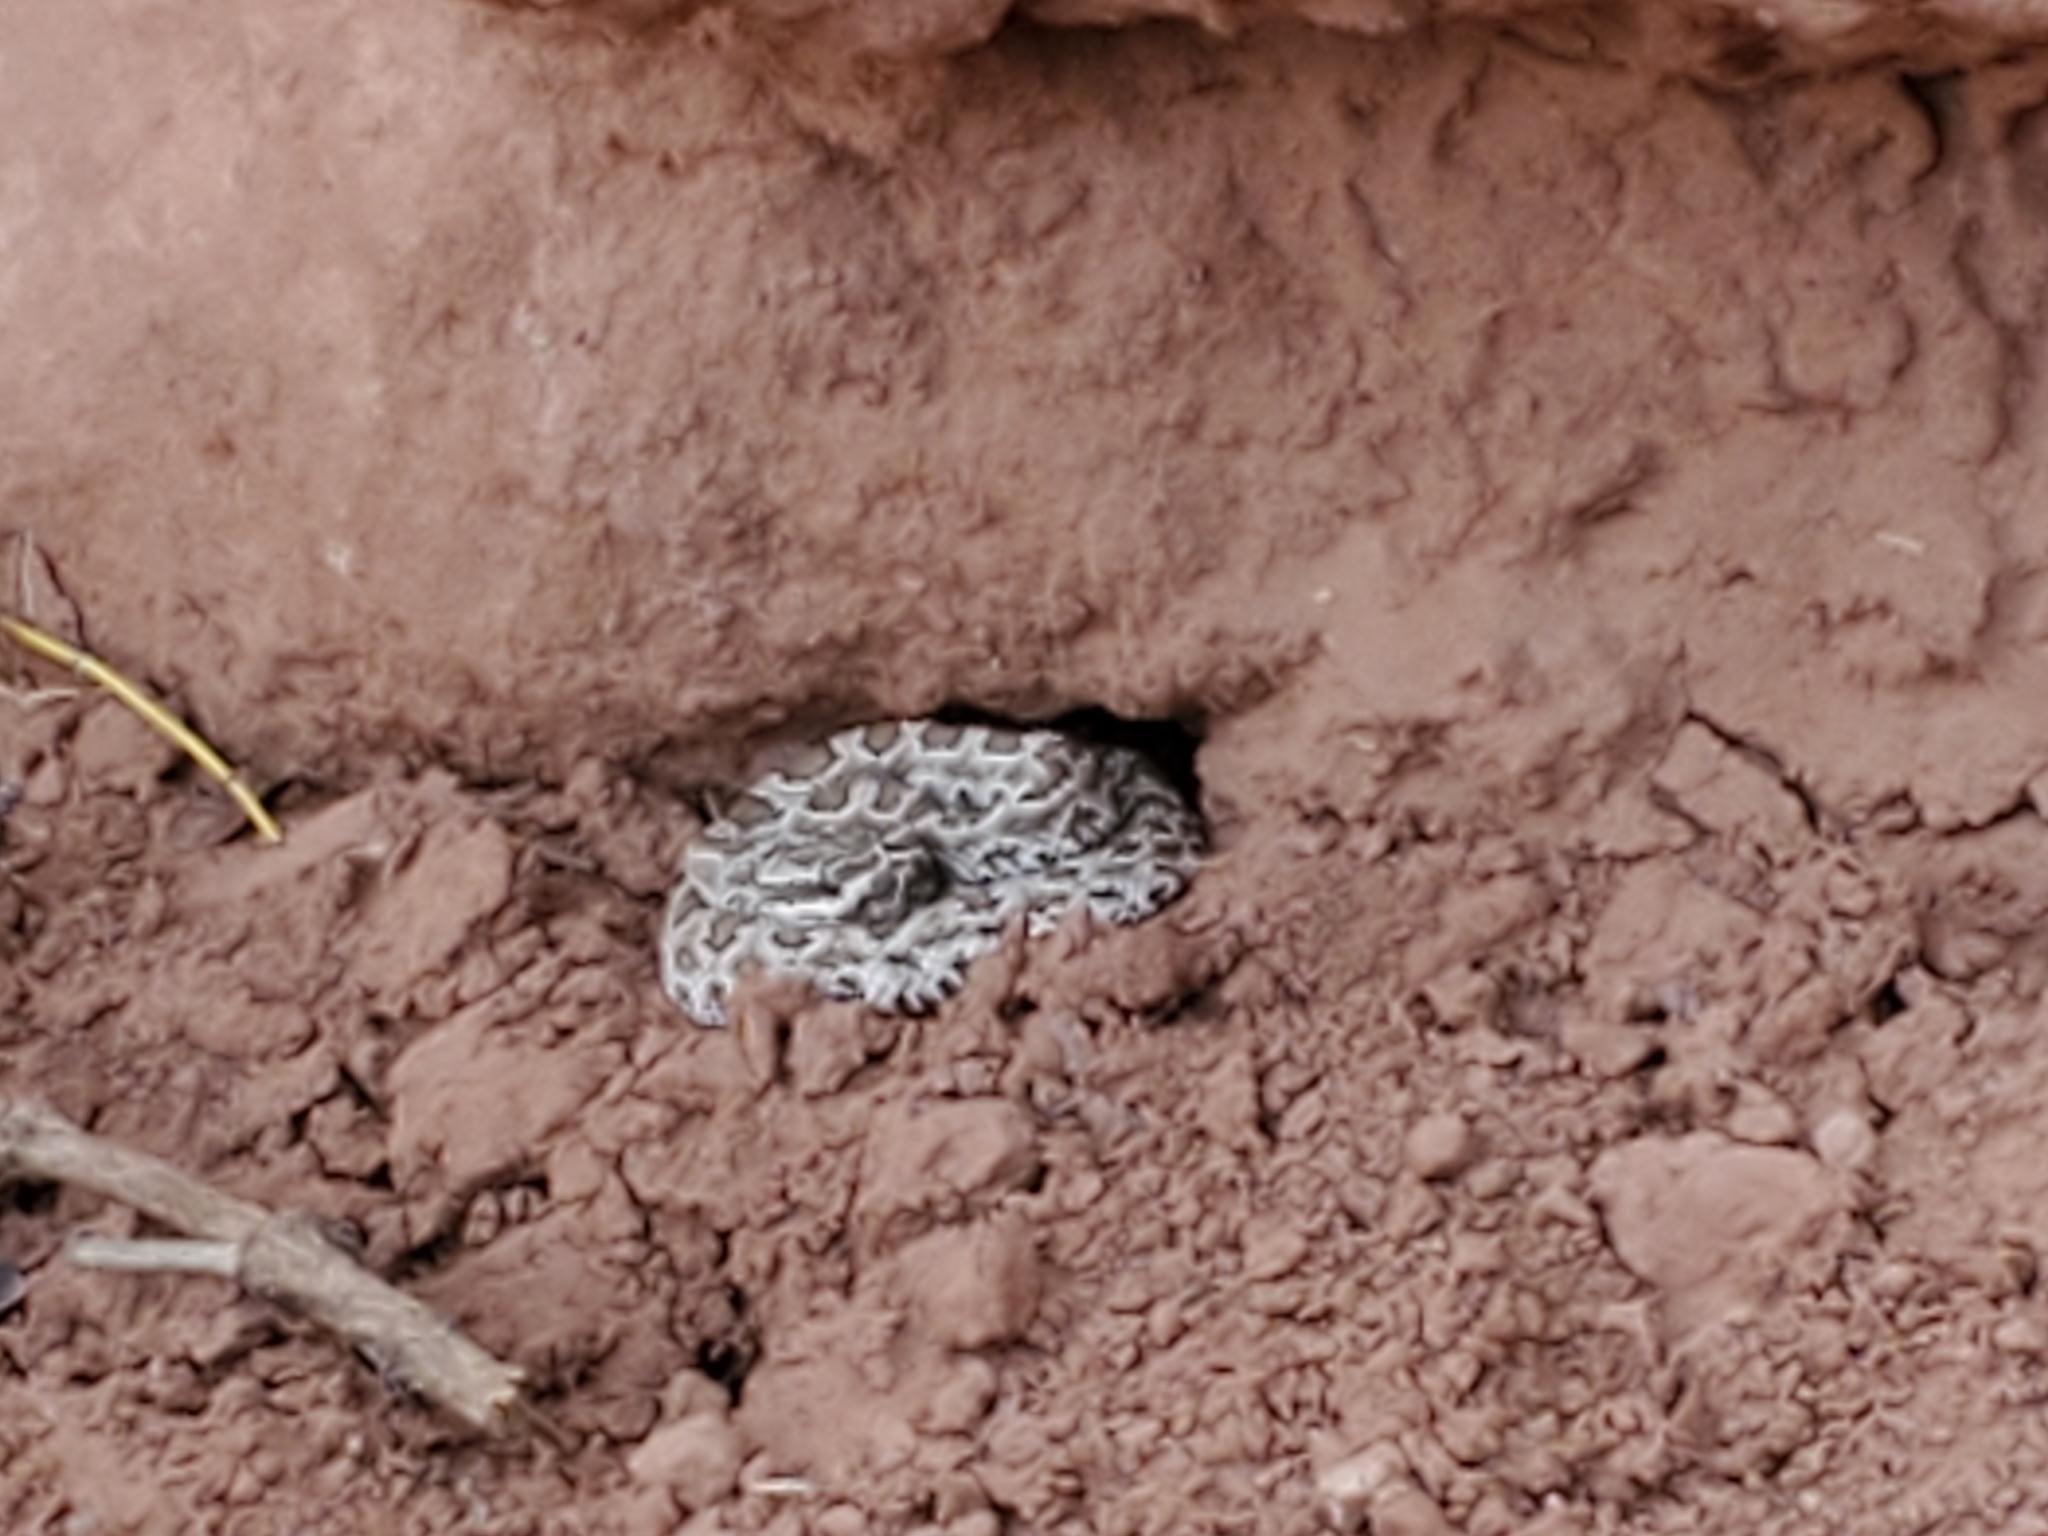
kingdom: Animalia
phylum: Chordata
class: Squamata
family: Viperidae
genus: Crotalus
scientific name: Crotalus oreganus
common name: Abyssus
